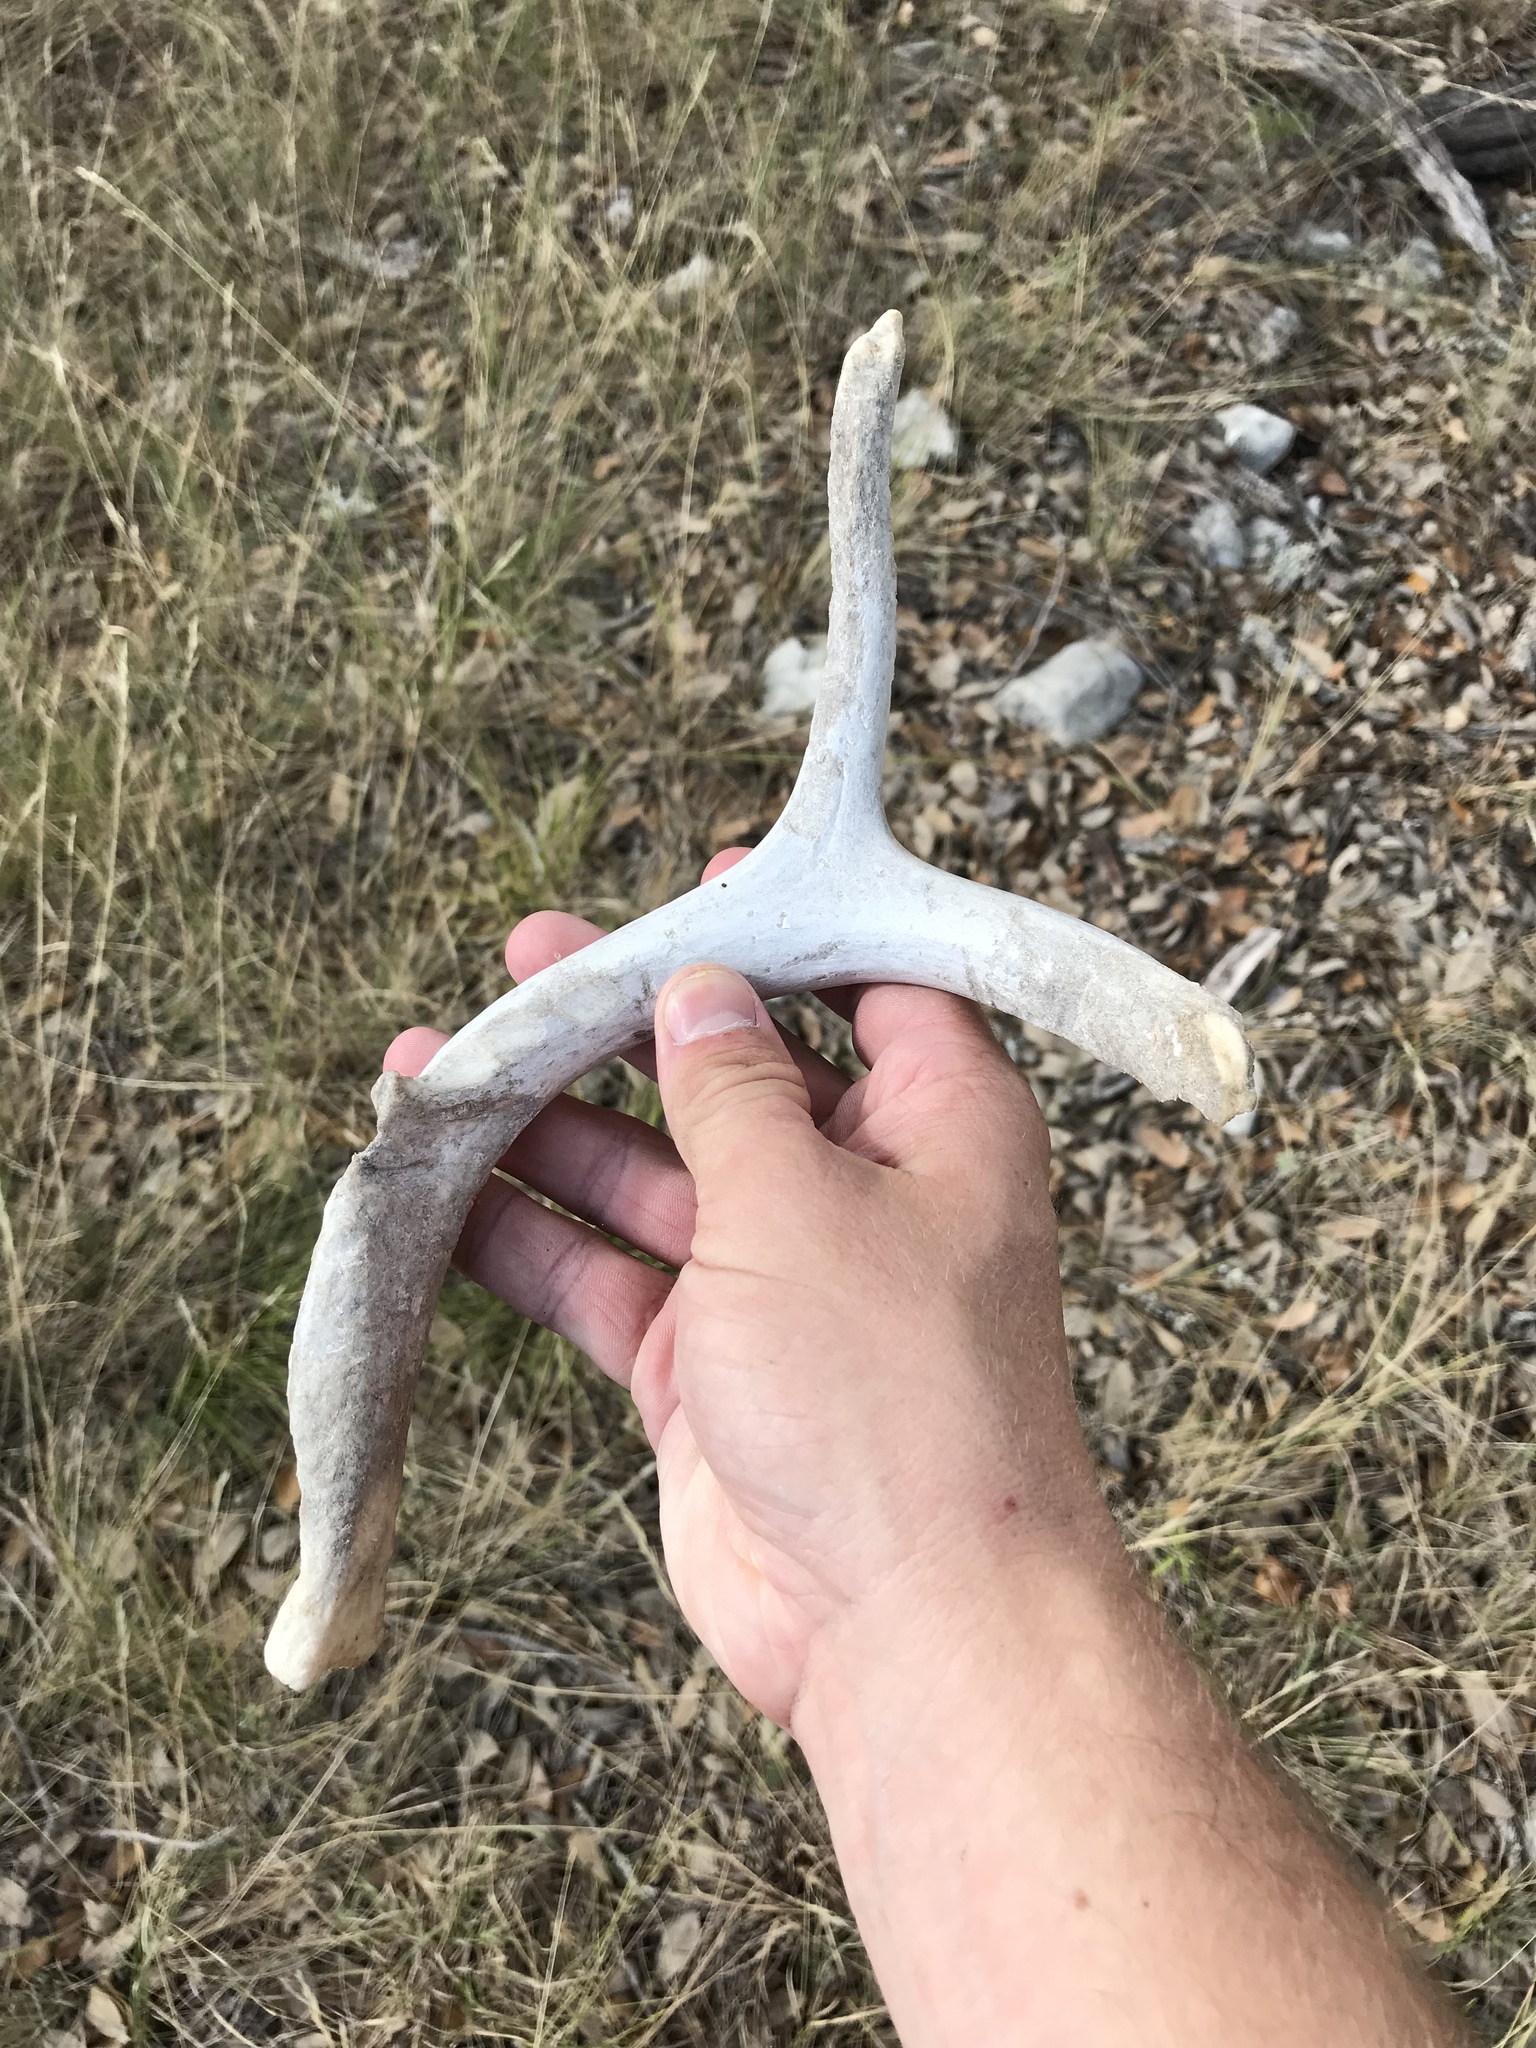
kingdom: Animalia
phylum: Chordata
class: Mammalia
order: Artiodactyla
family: Cervidae
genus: Odocoileus
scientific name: Odocoileus virginianus
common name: White-tailed deer
